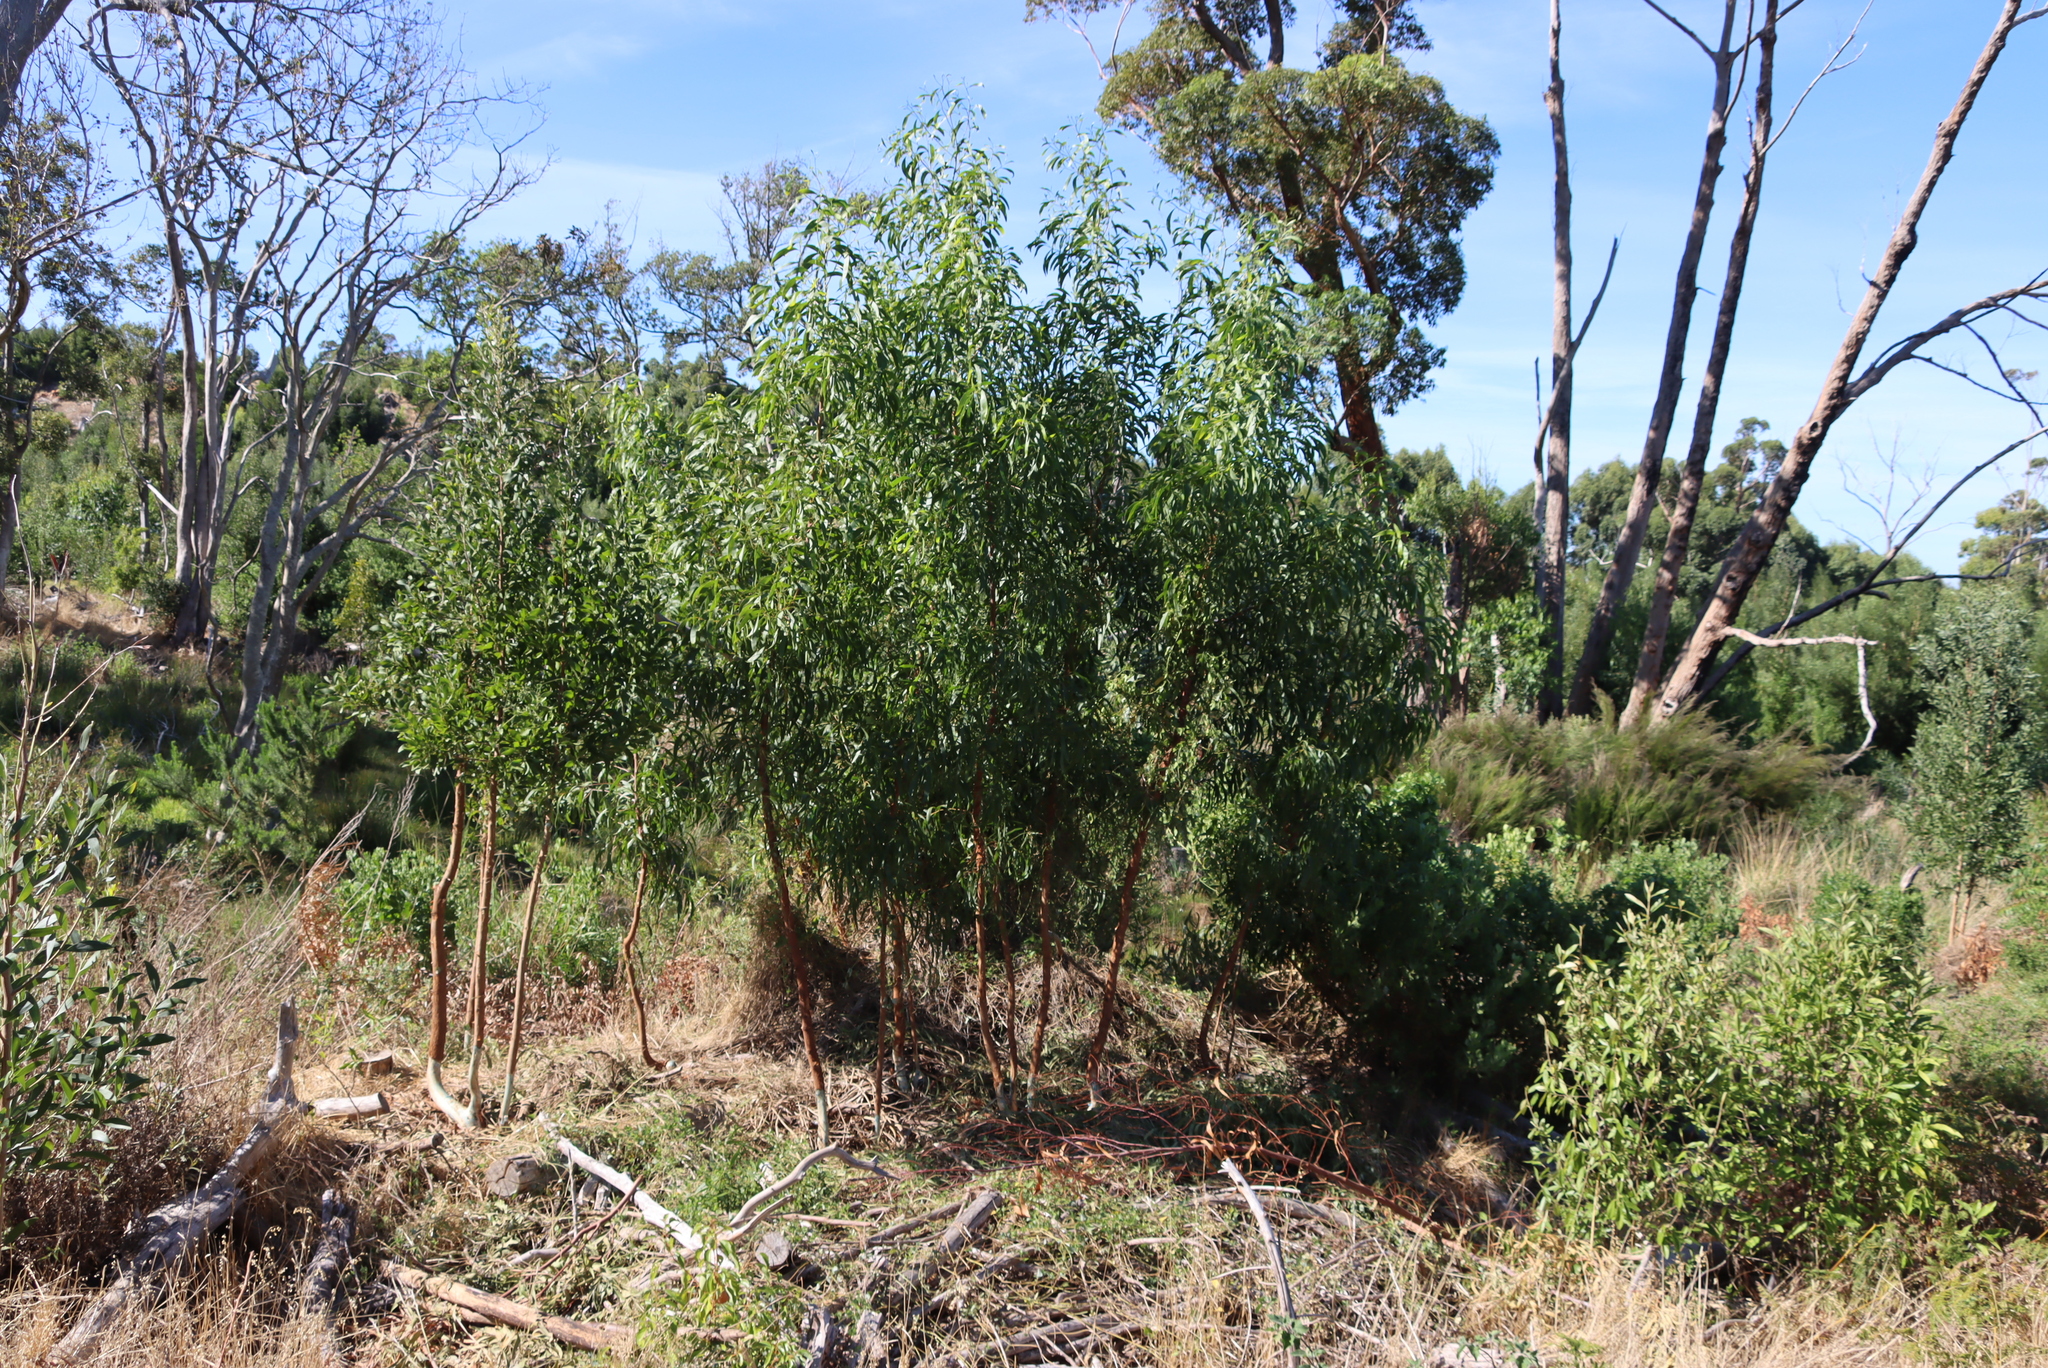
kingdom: Plantae
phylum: Tracheophyta
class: Magnoliopsida
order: Fabales
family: Fabaceae
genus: Acacia
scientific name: Acacia melanoxylon
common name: Blackwood
